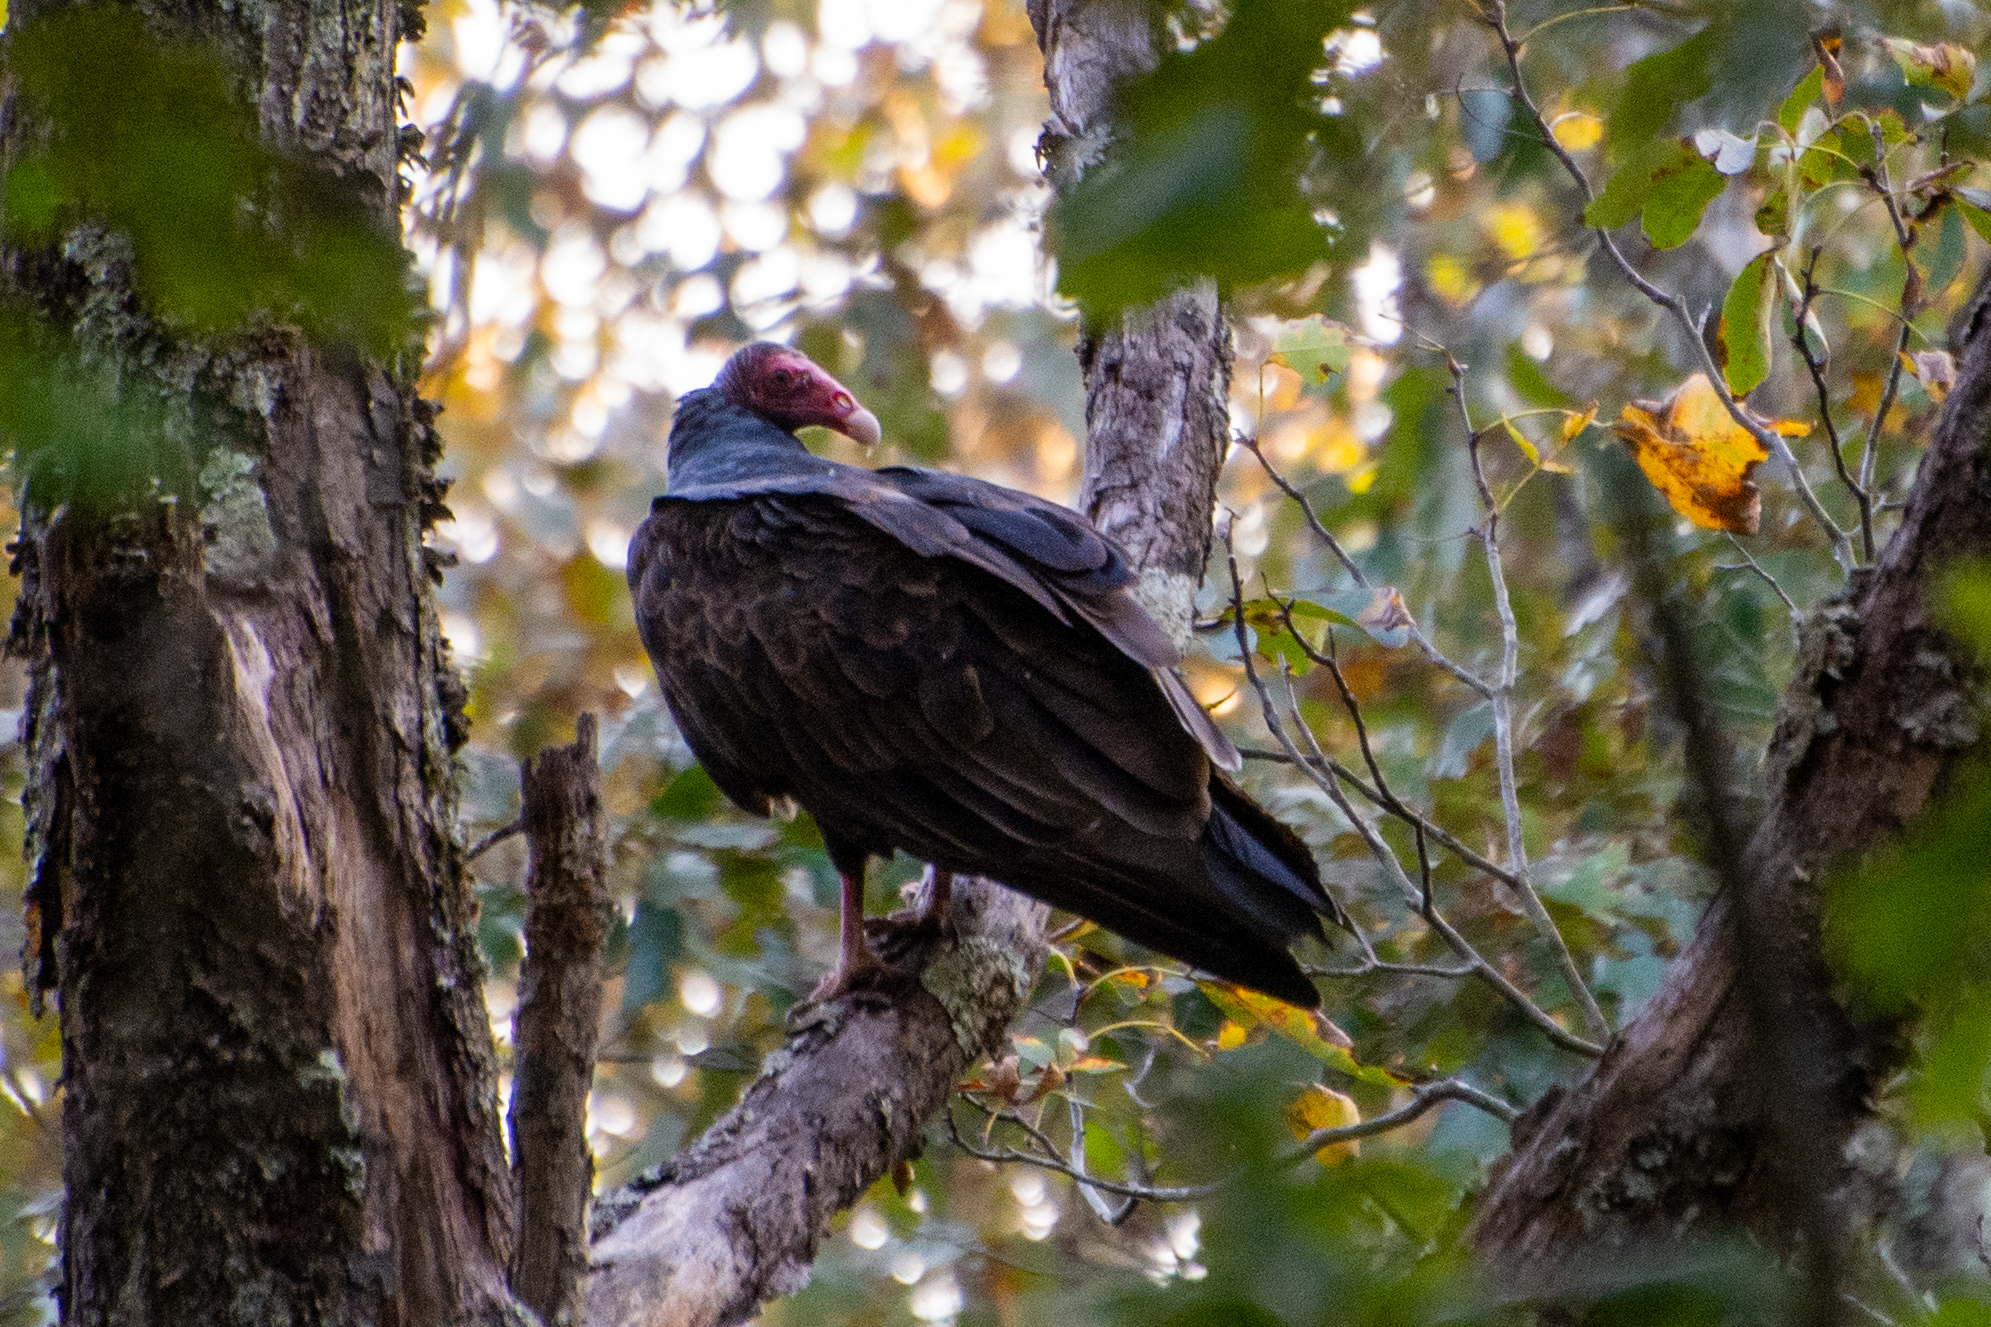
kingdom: Animalia
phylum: Chordata
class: Aves
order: Accipitriformes
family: Cathartidae
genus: Cathartes
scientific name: Cathartes aura
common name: Turkey vulture
